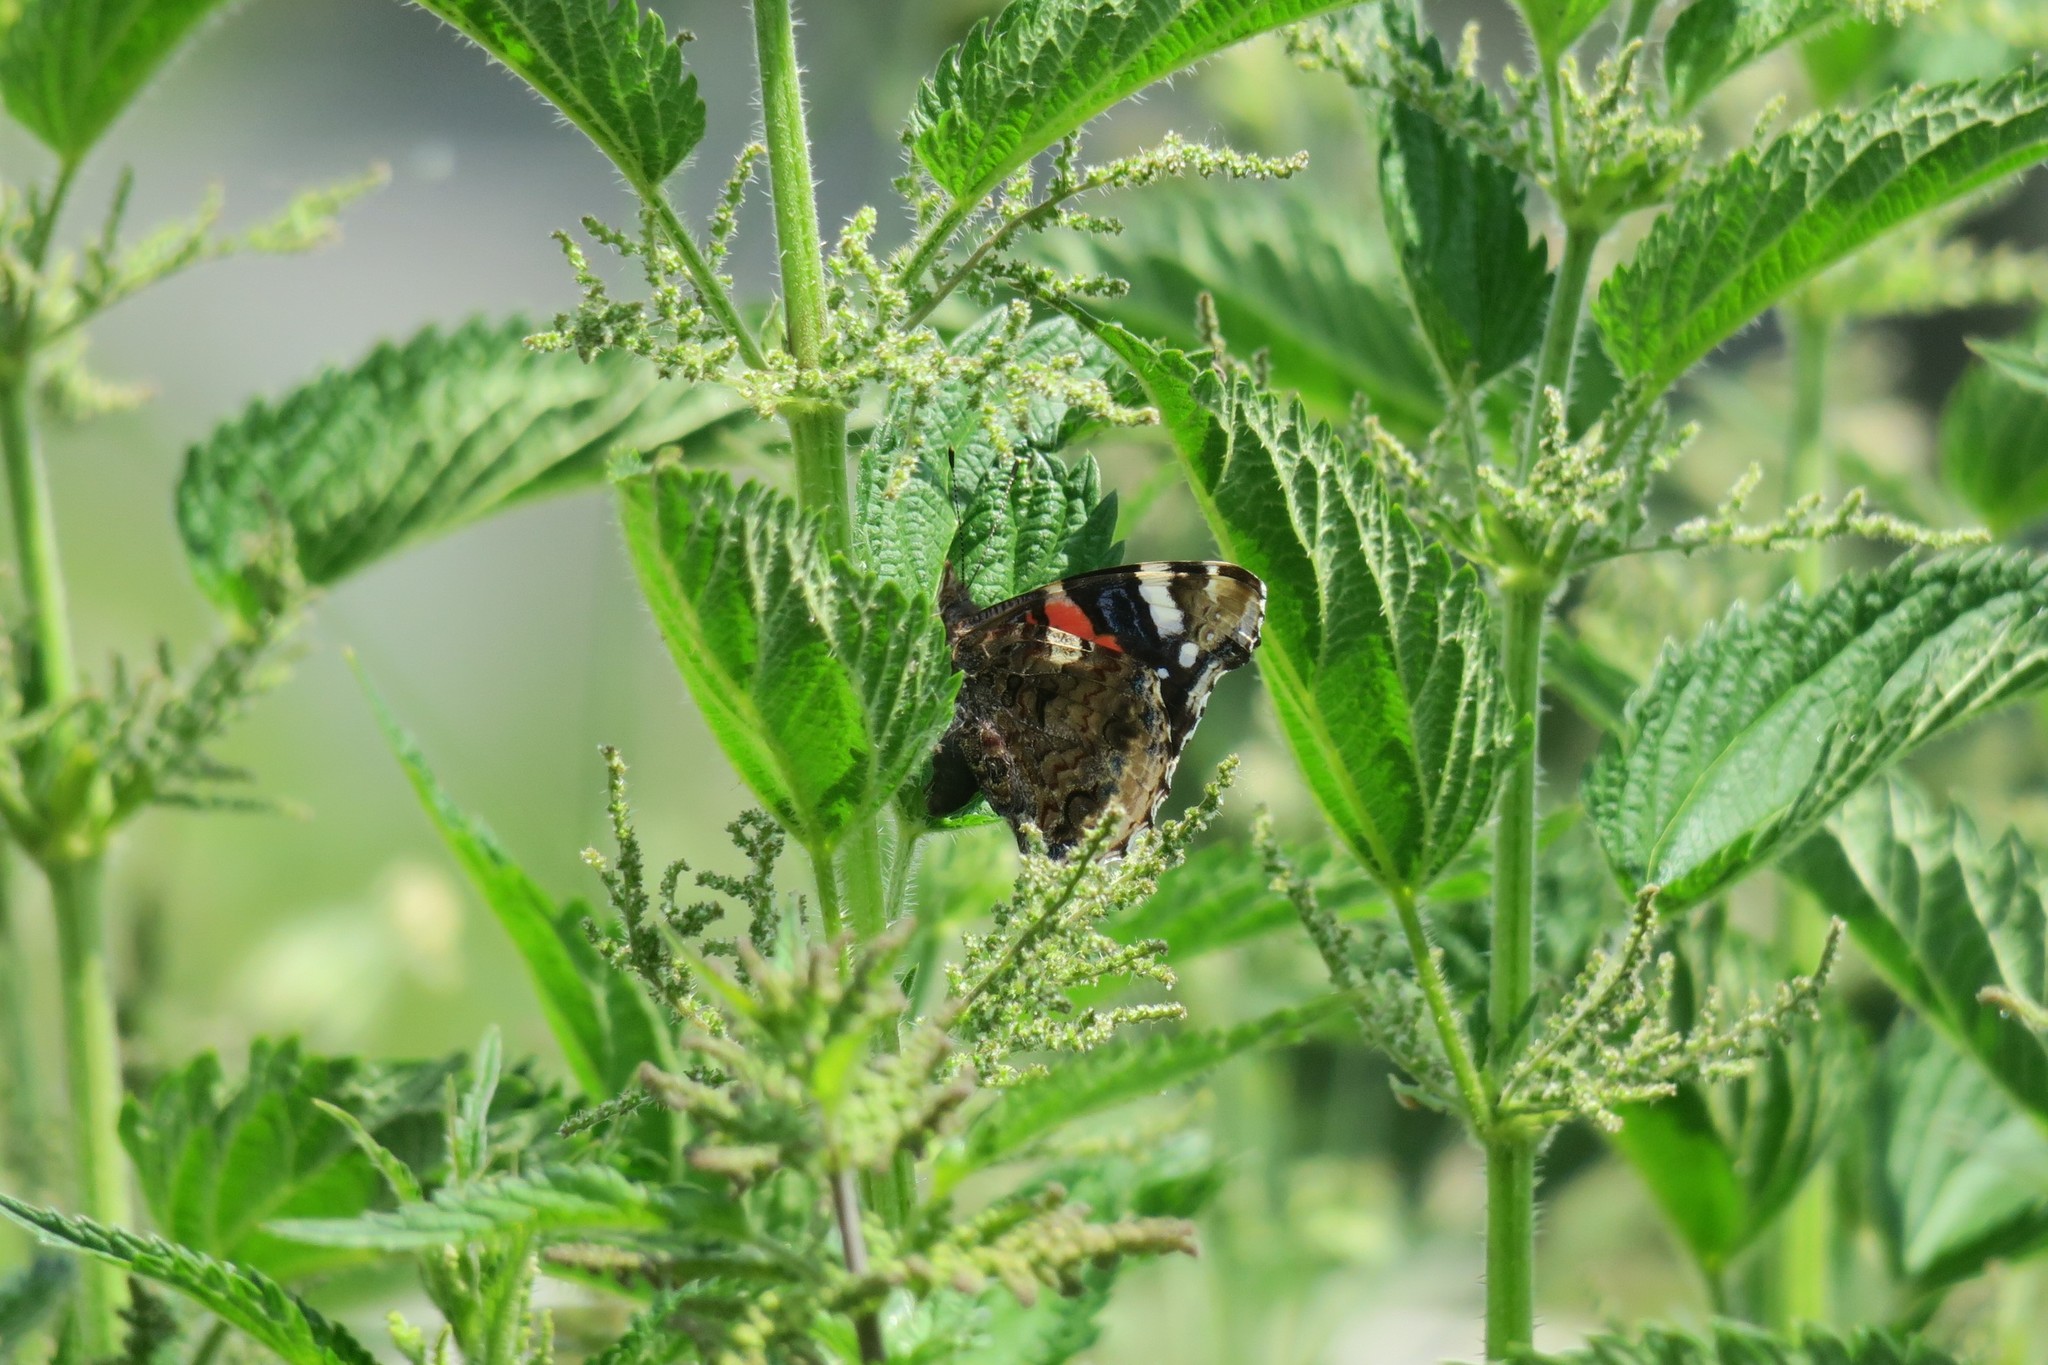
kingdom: Animalia
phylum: Arthropoda
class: Insecta
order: Lepidoptera
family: Nymphalidae
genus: Vanessa
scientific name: Vanessa atalanta
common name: Red admiral
